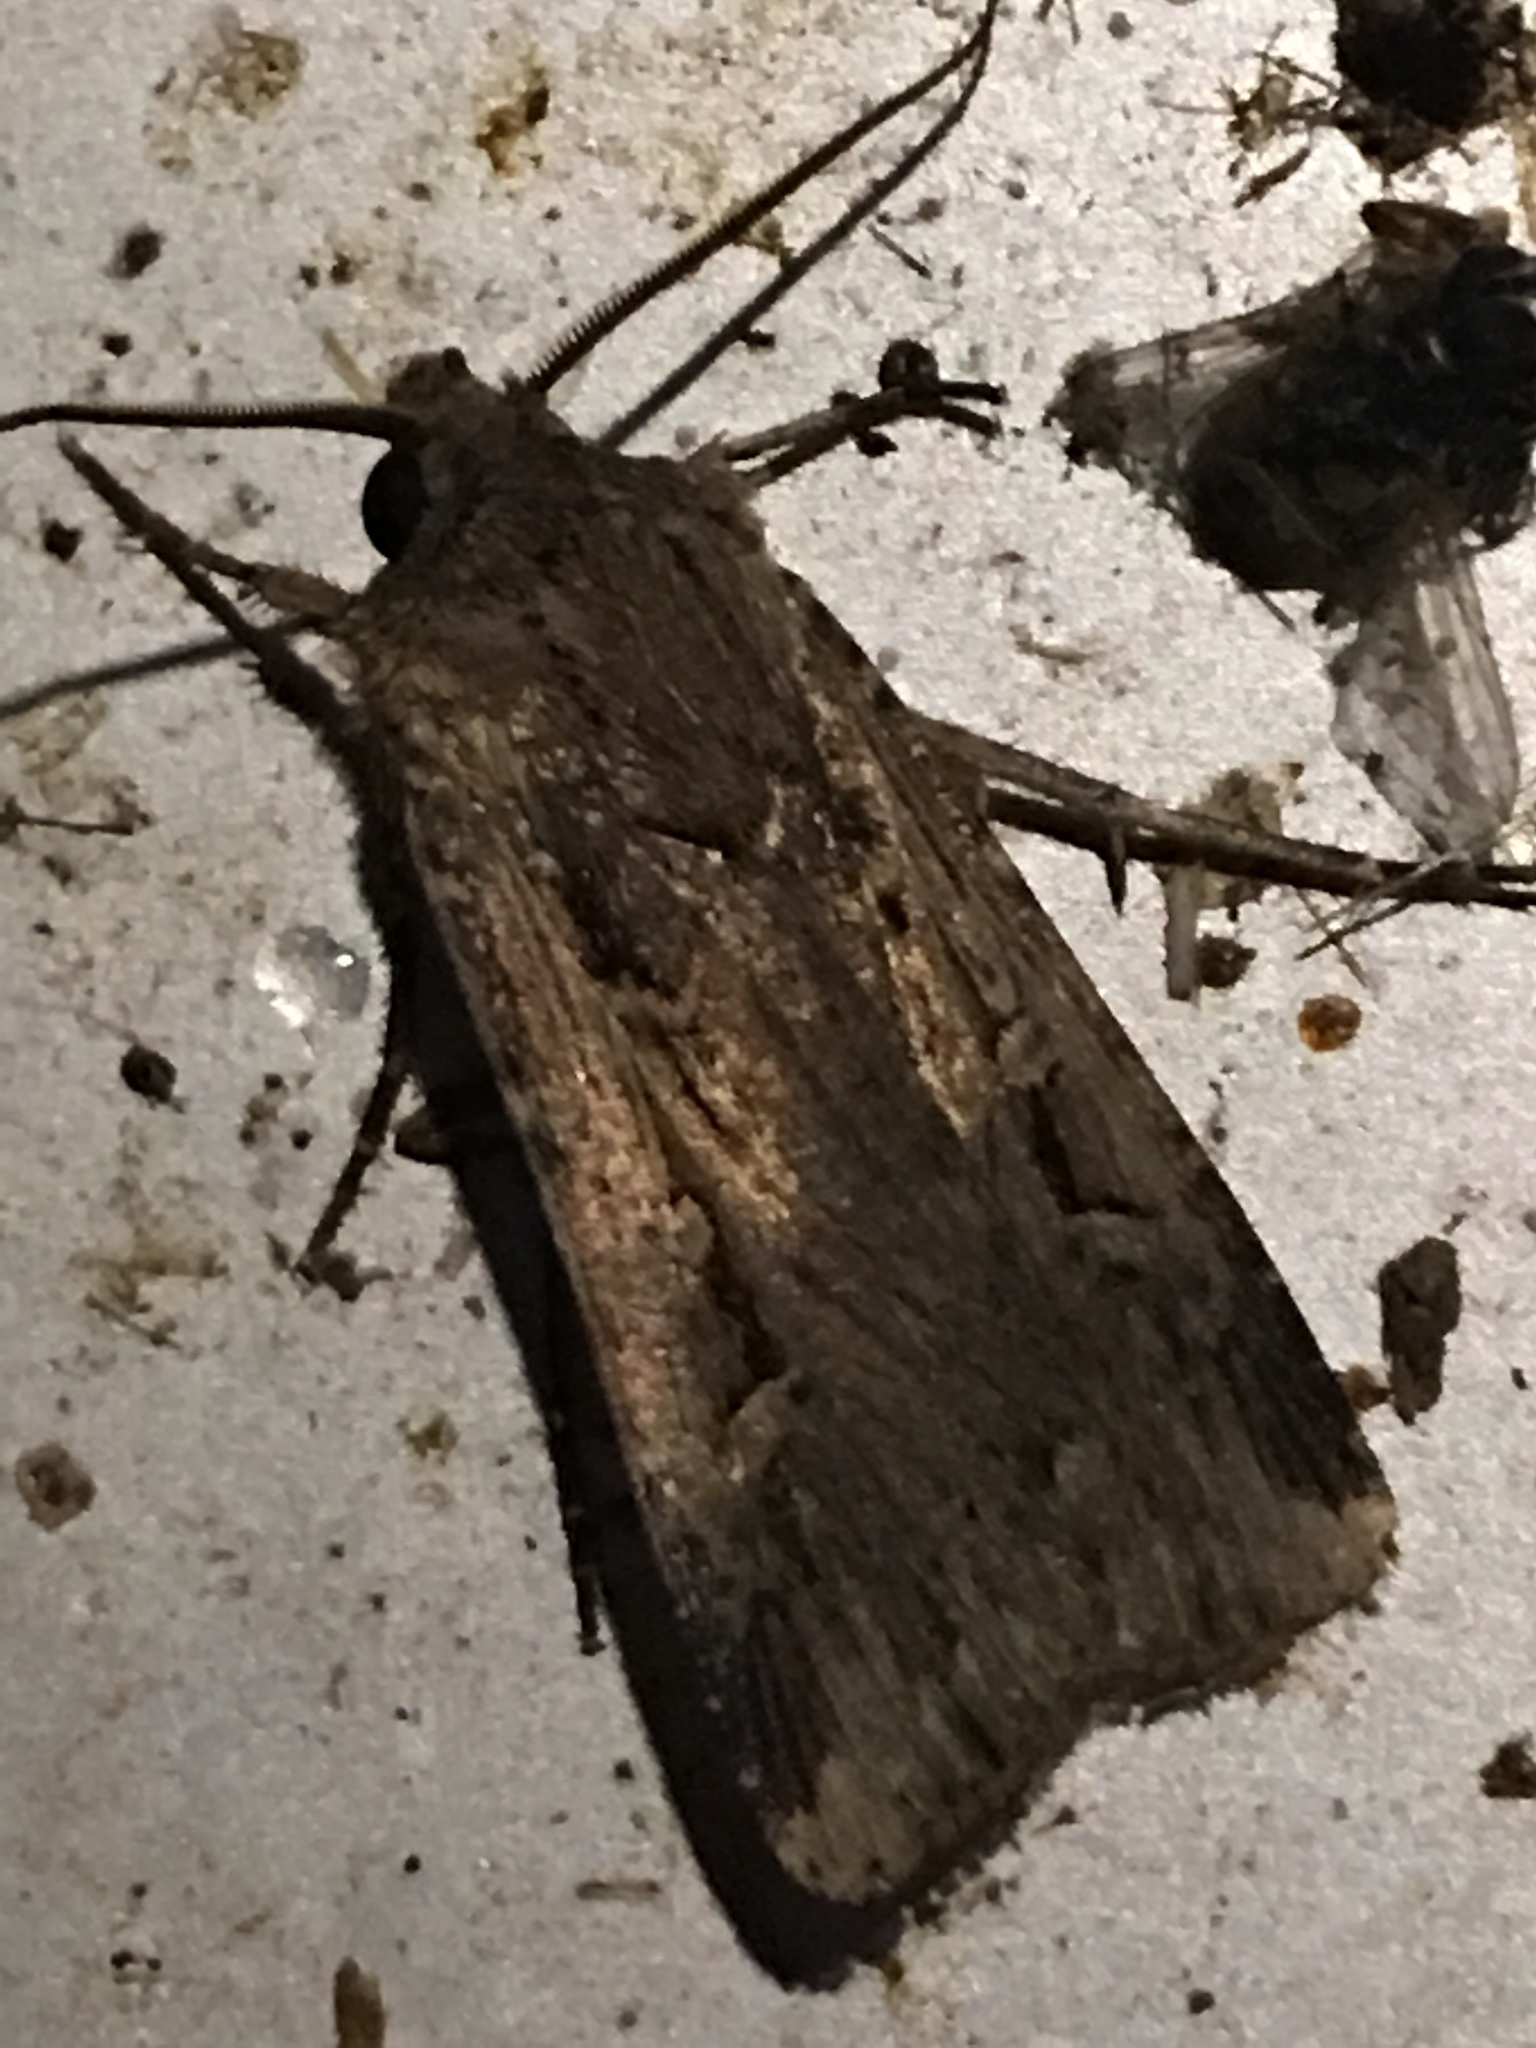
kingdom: Animalia
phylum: Arthropoda
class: Insecta
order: Lepidoptera
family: Noctuidae
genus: Feltia
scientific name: Feltia subterranea
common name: Granulate cutworm
